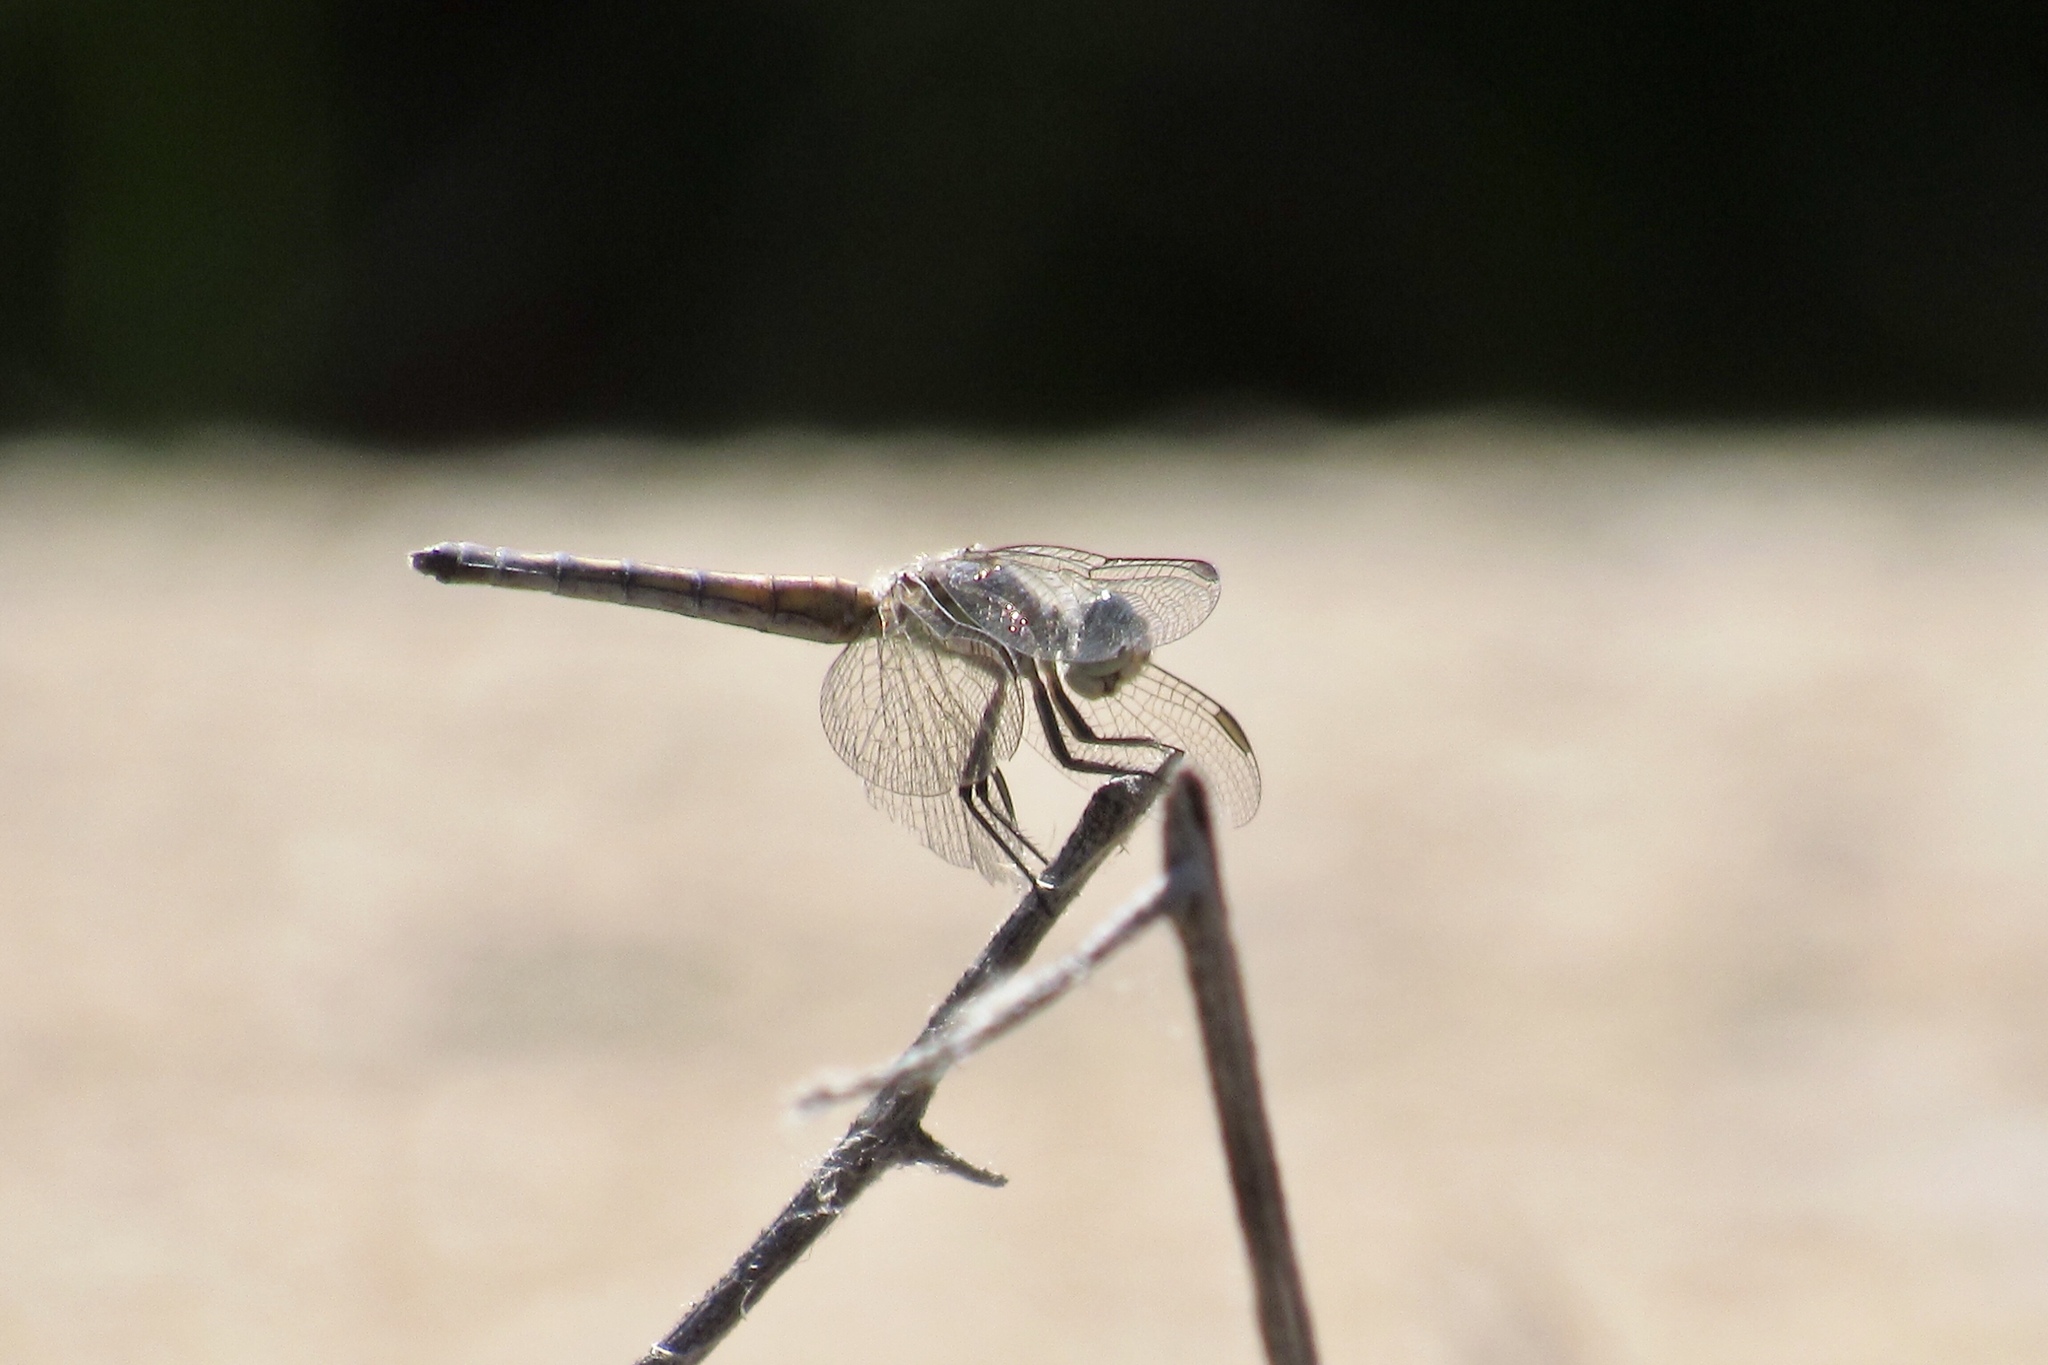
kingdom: Animalia
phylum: Arthropoda
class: Insecta
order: Odonata
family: Libellulidae
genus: Pachydiplax
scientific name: Pachydiplax longipennis
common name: Blue dasher
